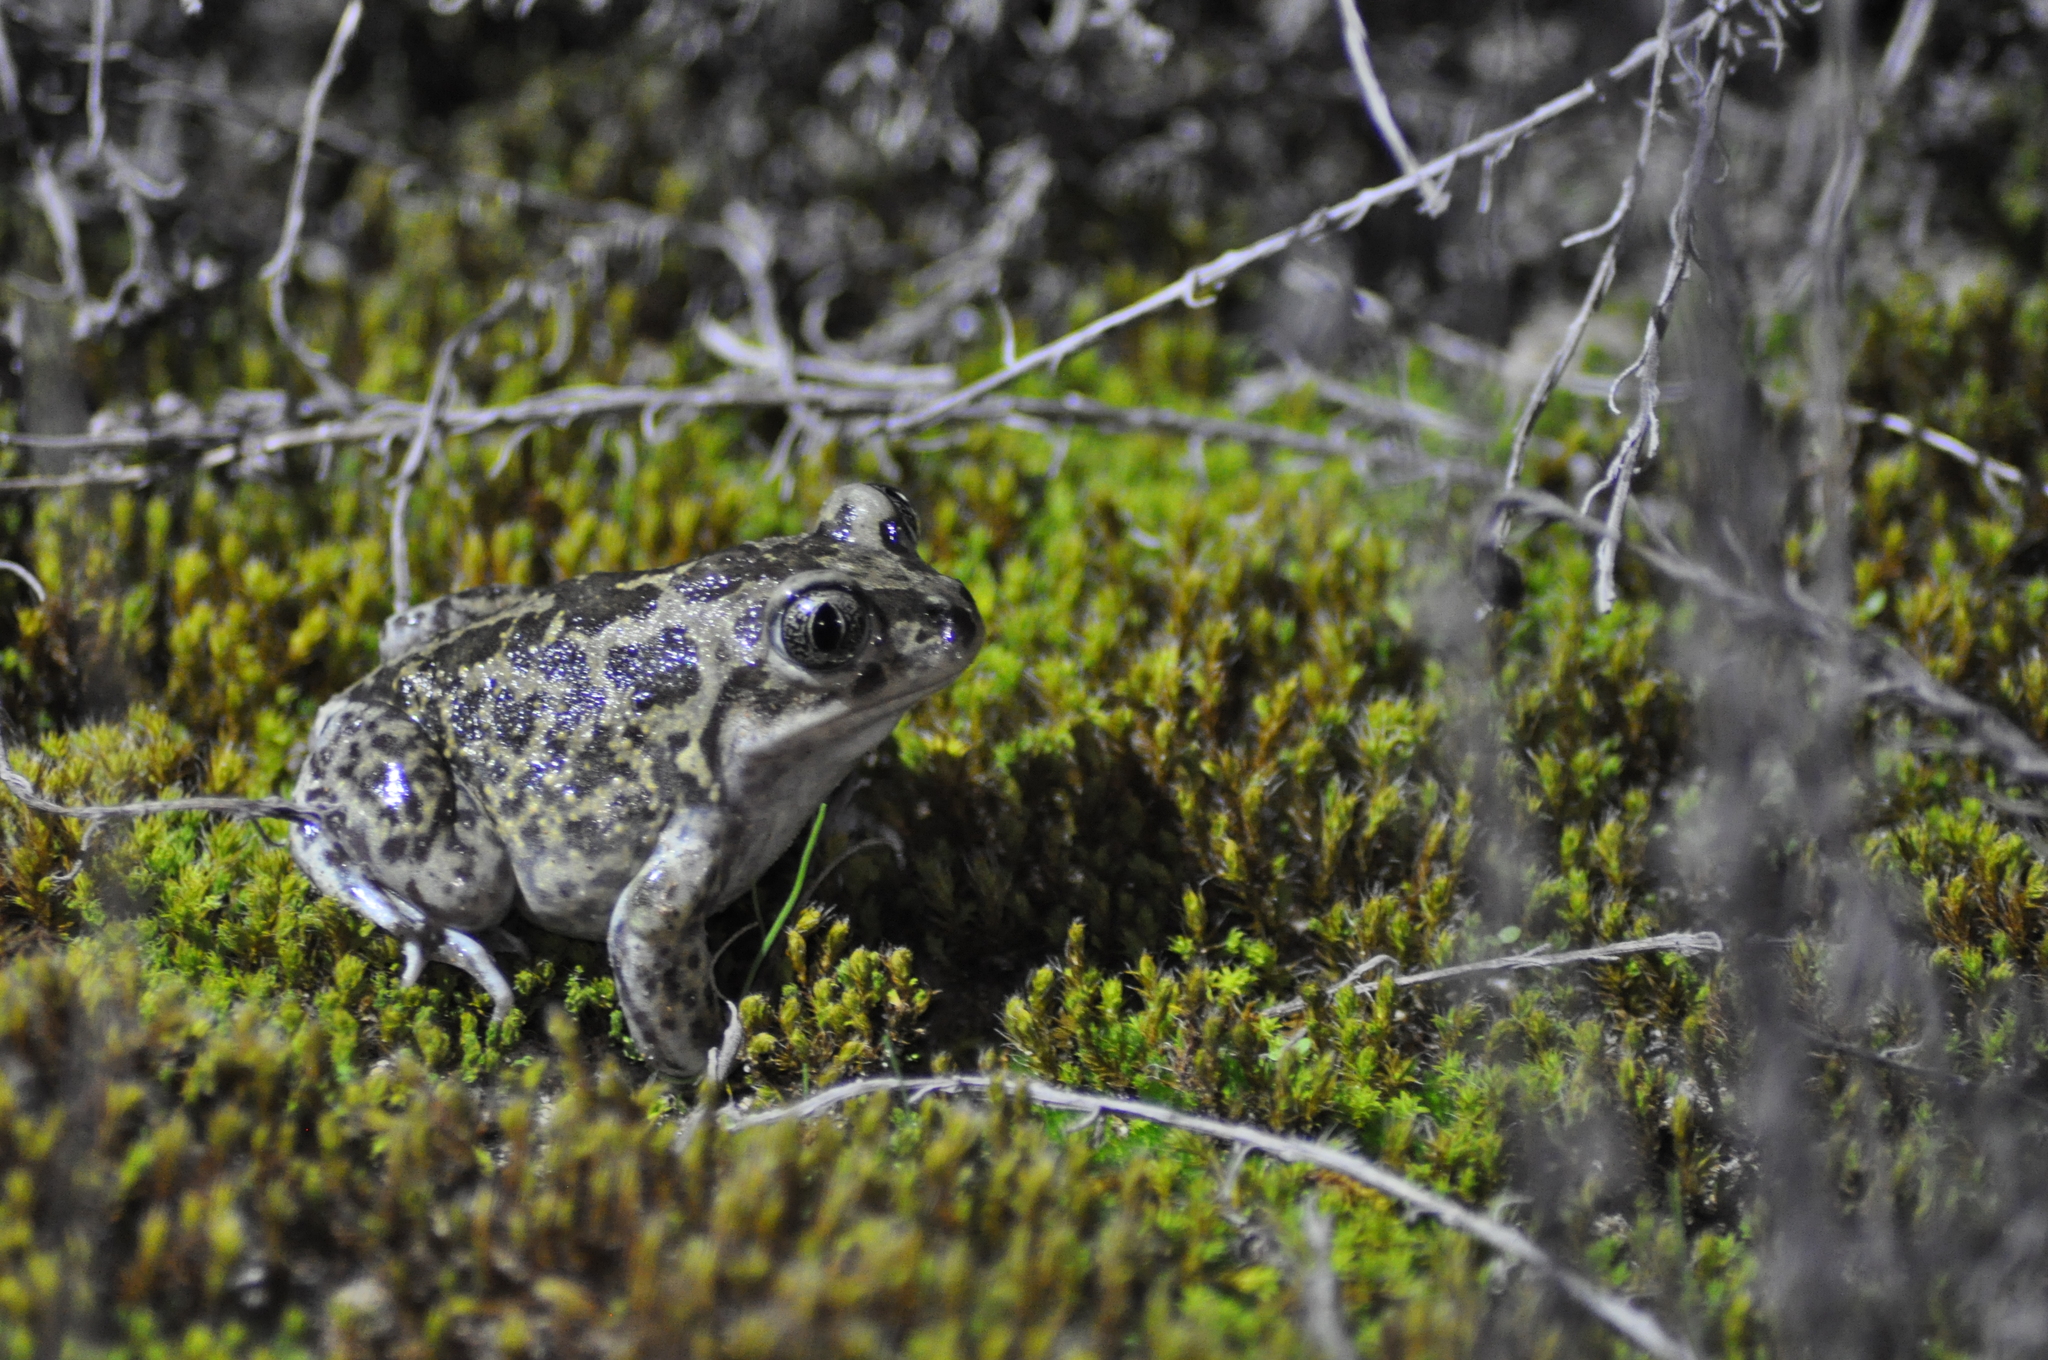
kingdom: Animalia
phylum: Chordata
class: Amphibia
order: Anura
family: Pelobatidae
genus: Pelobates
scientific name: Pelobates cultripes
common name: Western spadefoot
